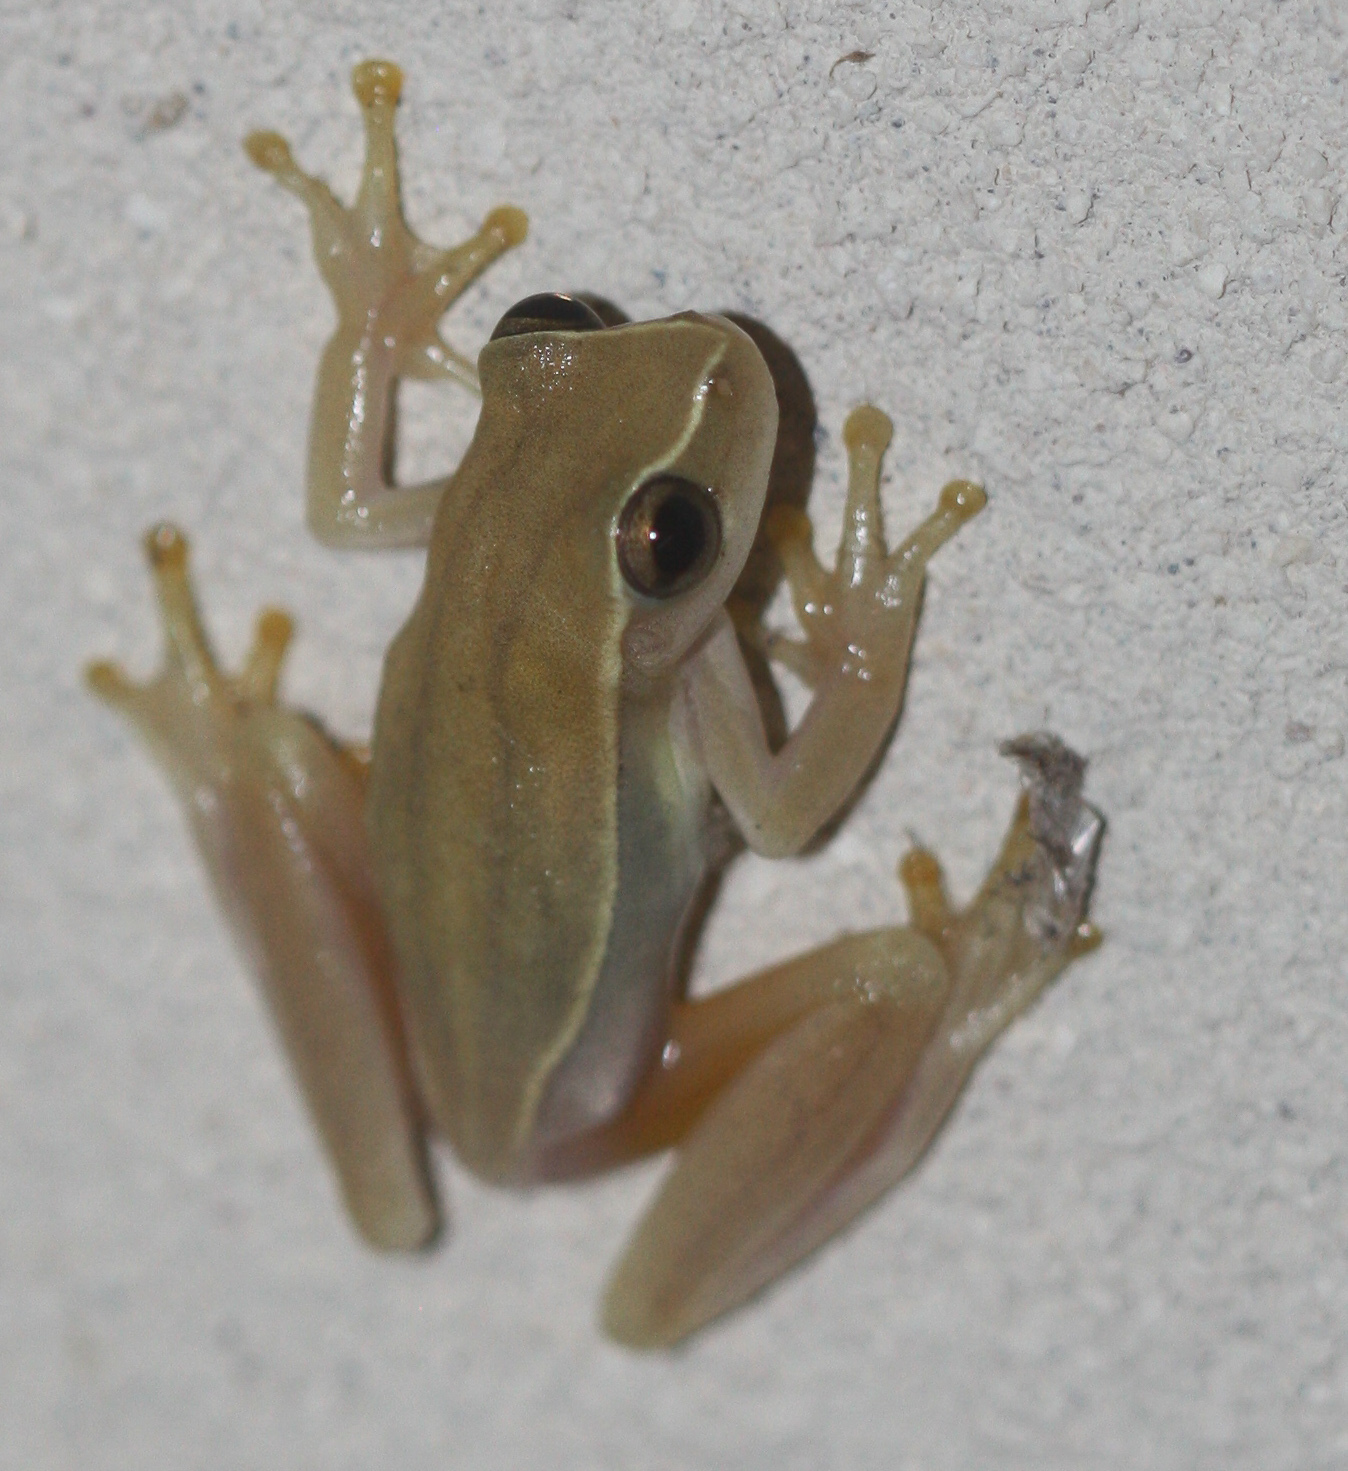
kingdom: Animalia
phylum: Chordata
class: Amphibia
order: Anura
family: Hylidae
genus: Dendropsophus
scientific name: Dendropsophus microcephalus
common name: Small-headed treefrog
